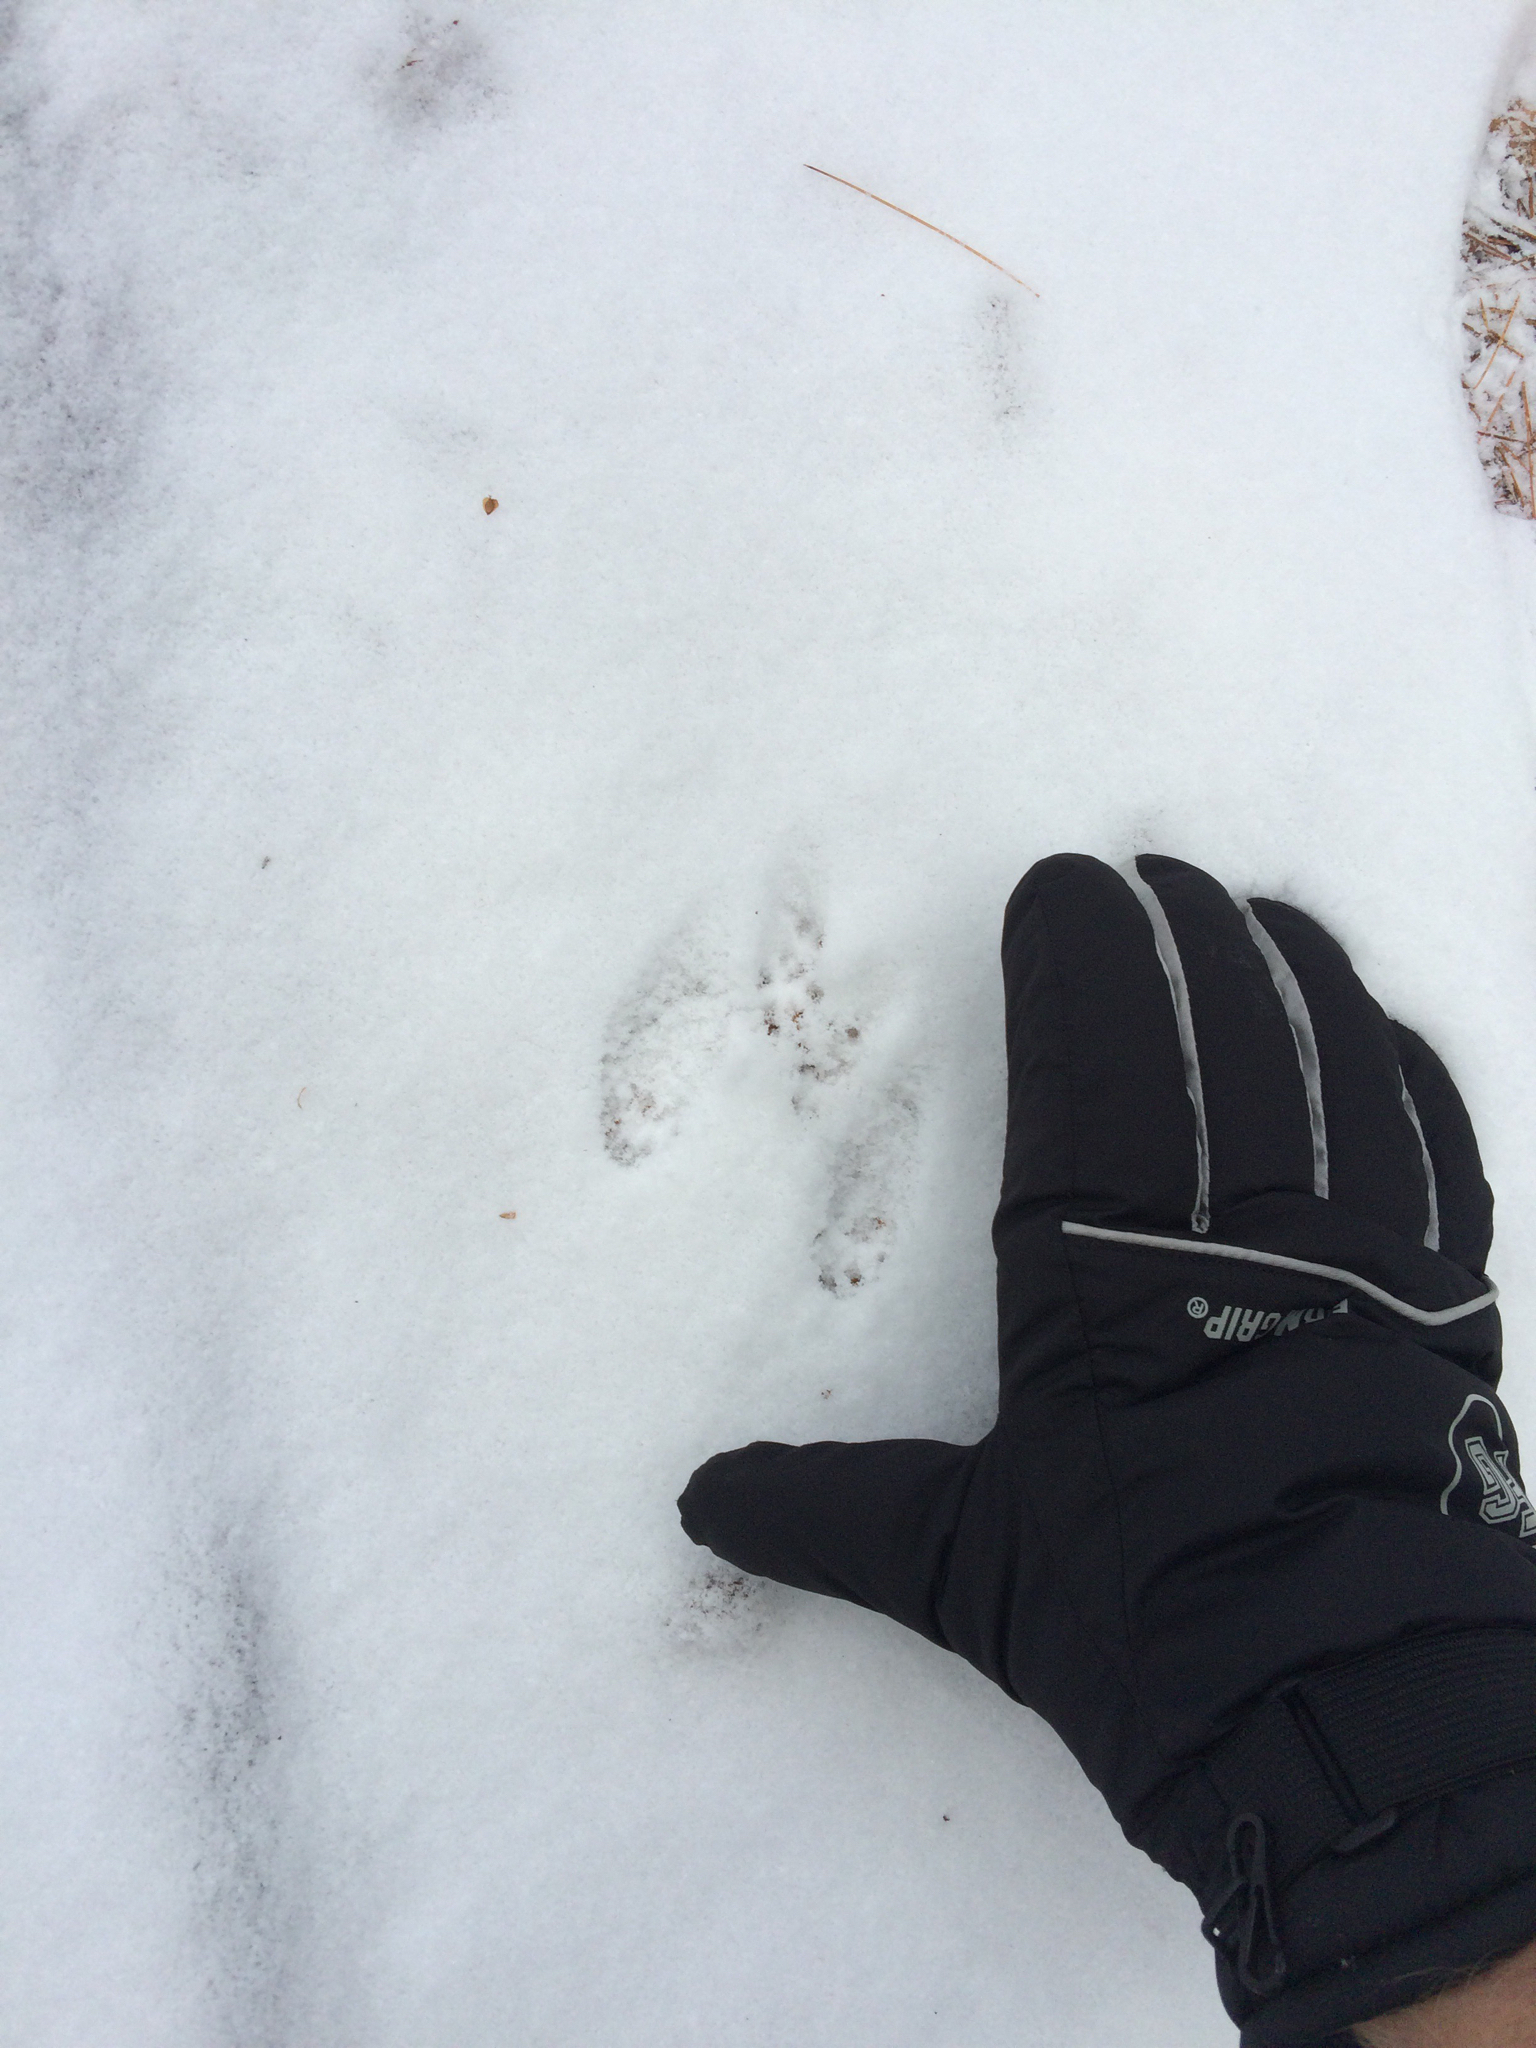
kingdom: Animalia
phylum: Chordata
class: Mammalia
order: Rodentia
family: Sciuridae
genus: Tamiasciurus
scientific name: Tamiasciurus hudsonicus
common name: Red squirrel
